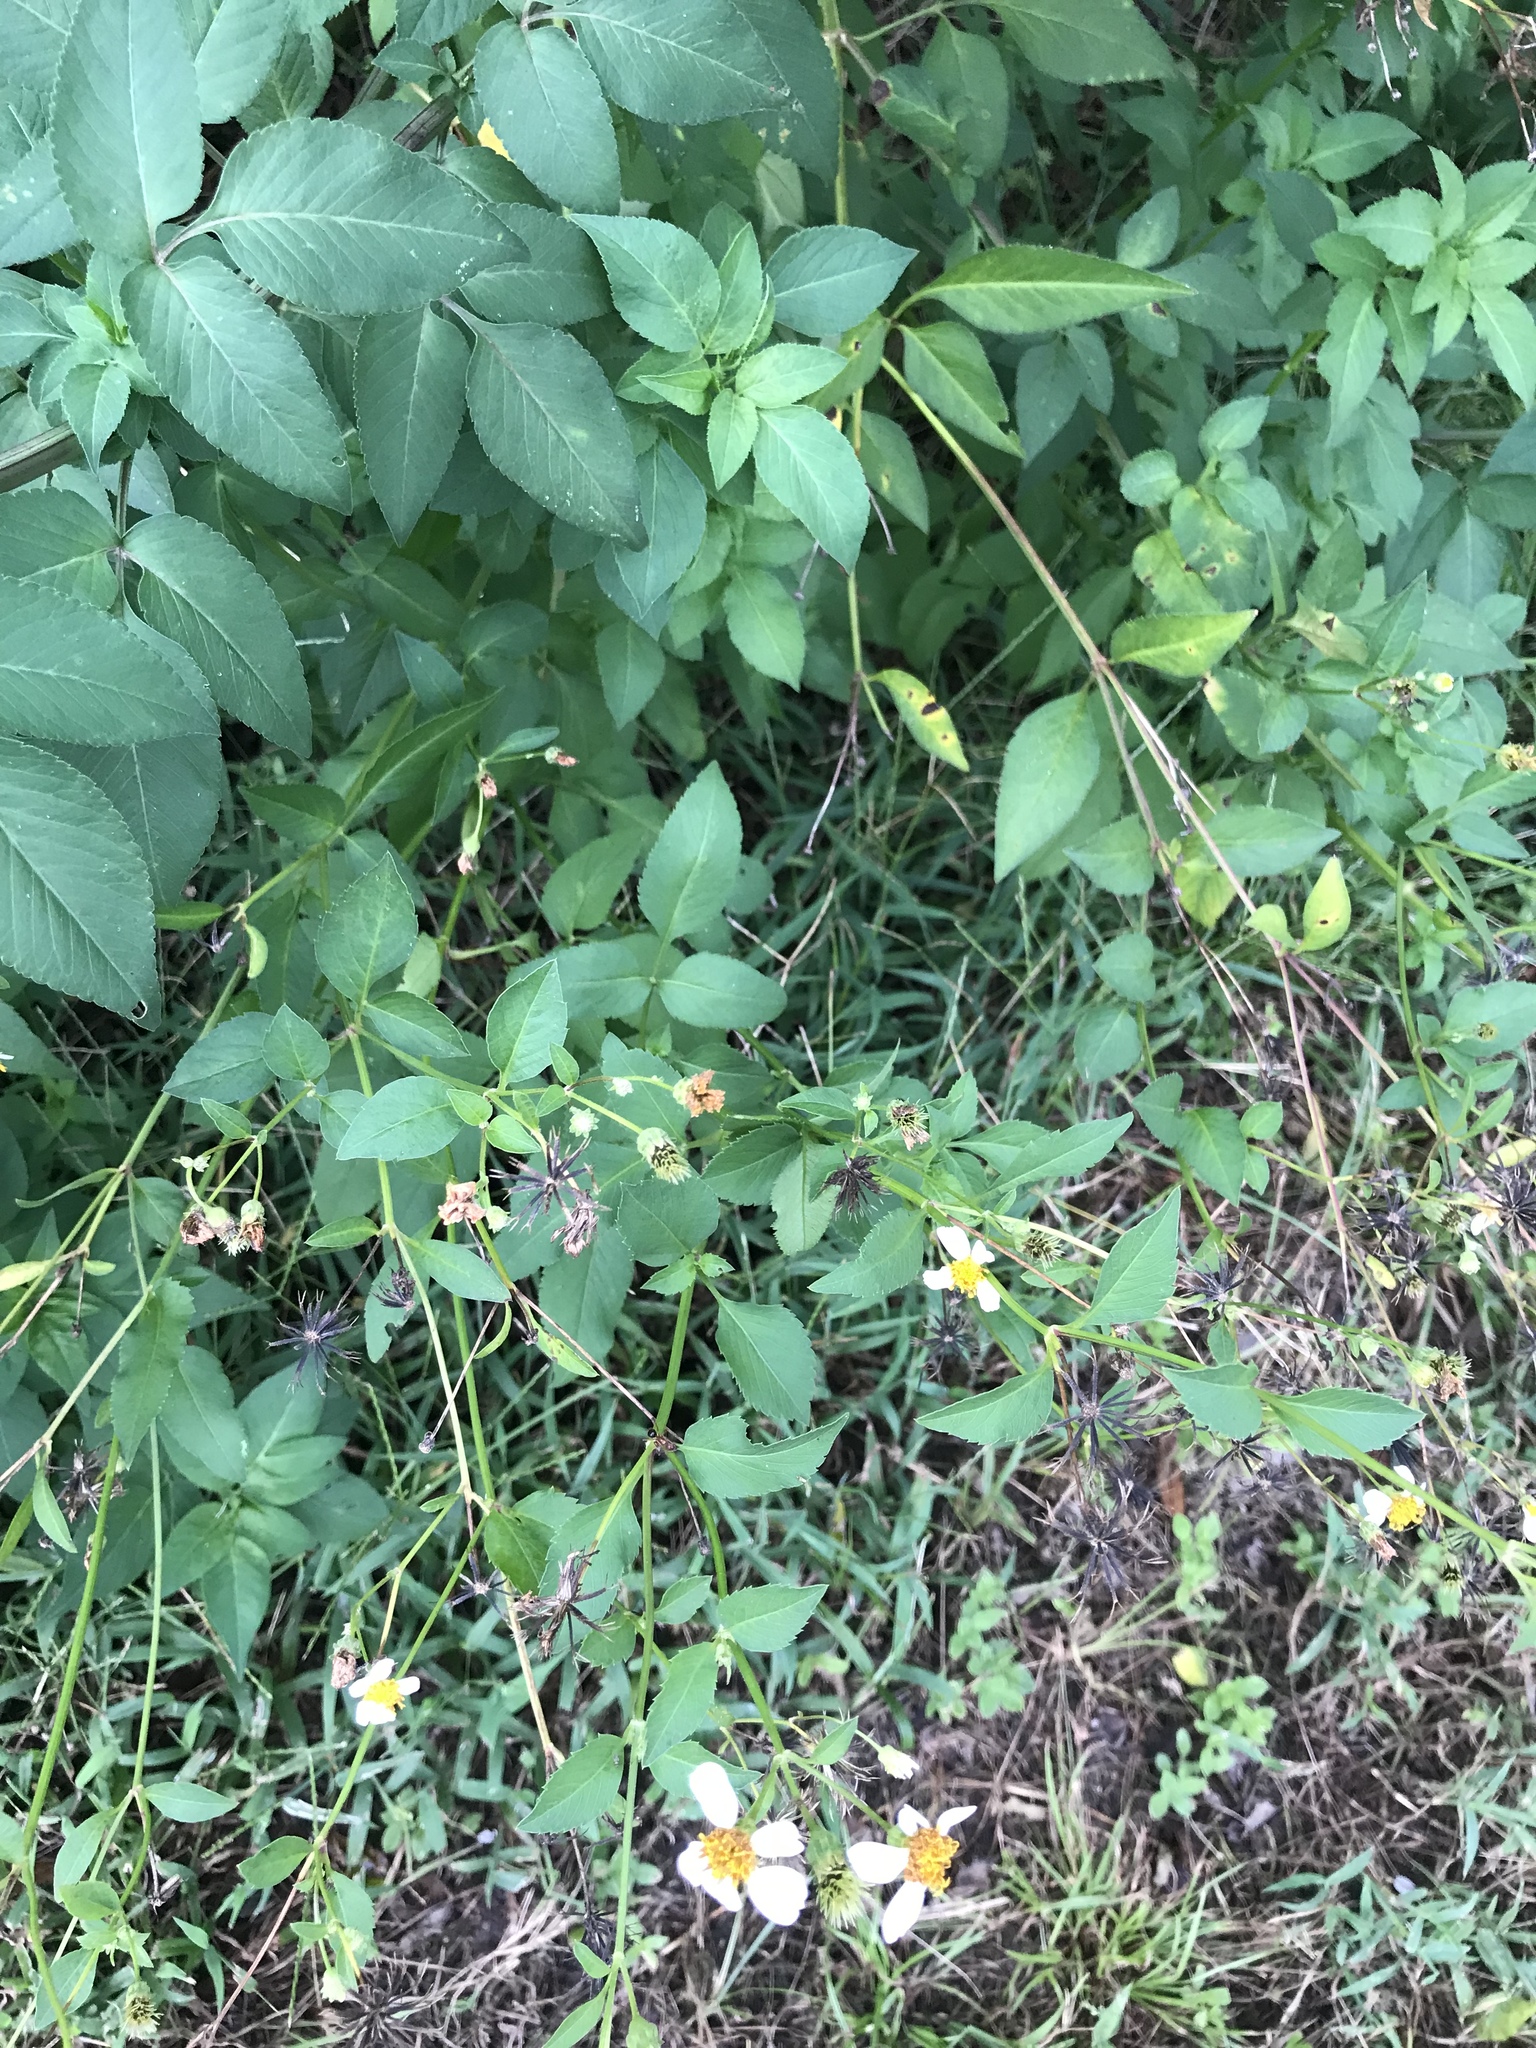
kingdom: Plantae
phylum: Tracheophyta
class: Magnoliopsida
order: Asterales
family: Asteraceae
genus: Bidens
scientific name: Bidens alba
